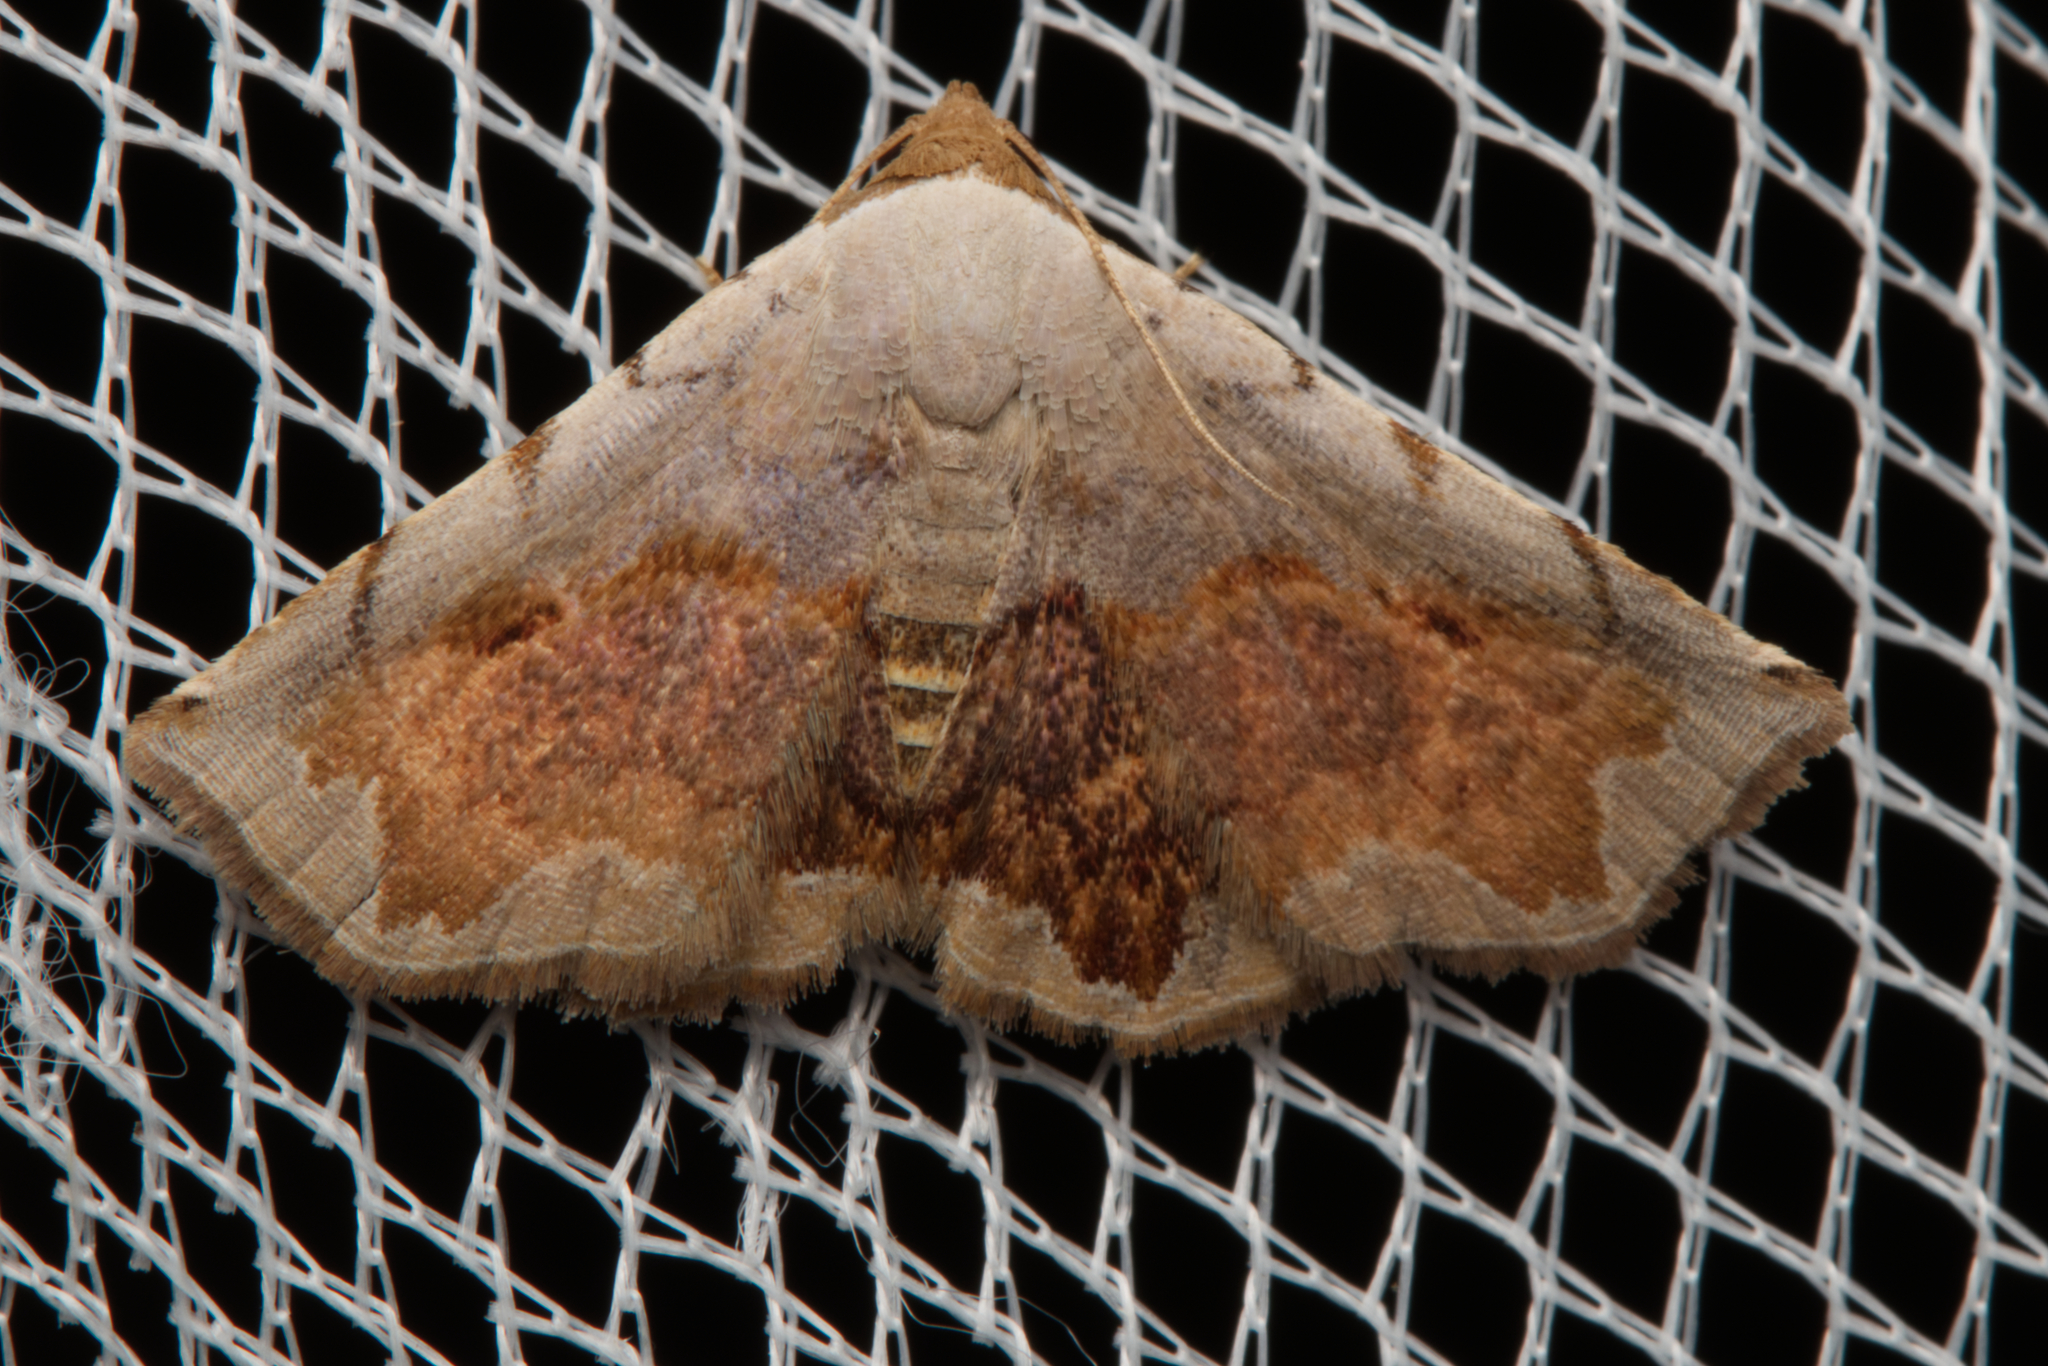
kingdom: Animalia
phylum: Arthropoda
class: Insecta
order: Lepidoptera
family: Noctuidae
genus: Eublemma
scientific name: Eublemma
